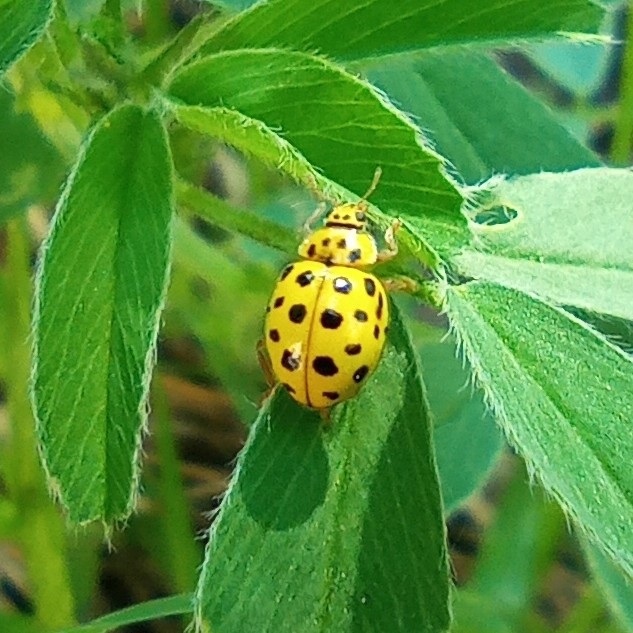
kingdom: Animalia
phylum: Arthropoda
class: Insecta
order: Coleoptera
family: Coccinellidae
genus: Psyllobora
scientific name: Psyllobora vigintiduopunctata
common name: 22-spot ladybird
